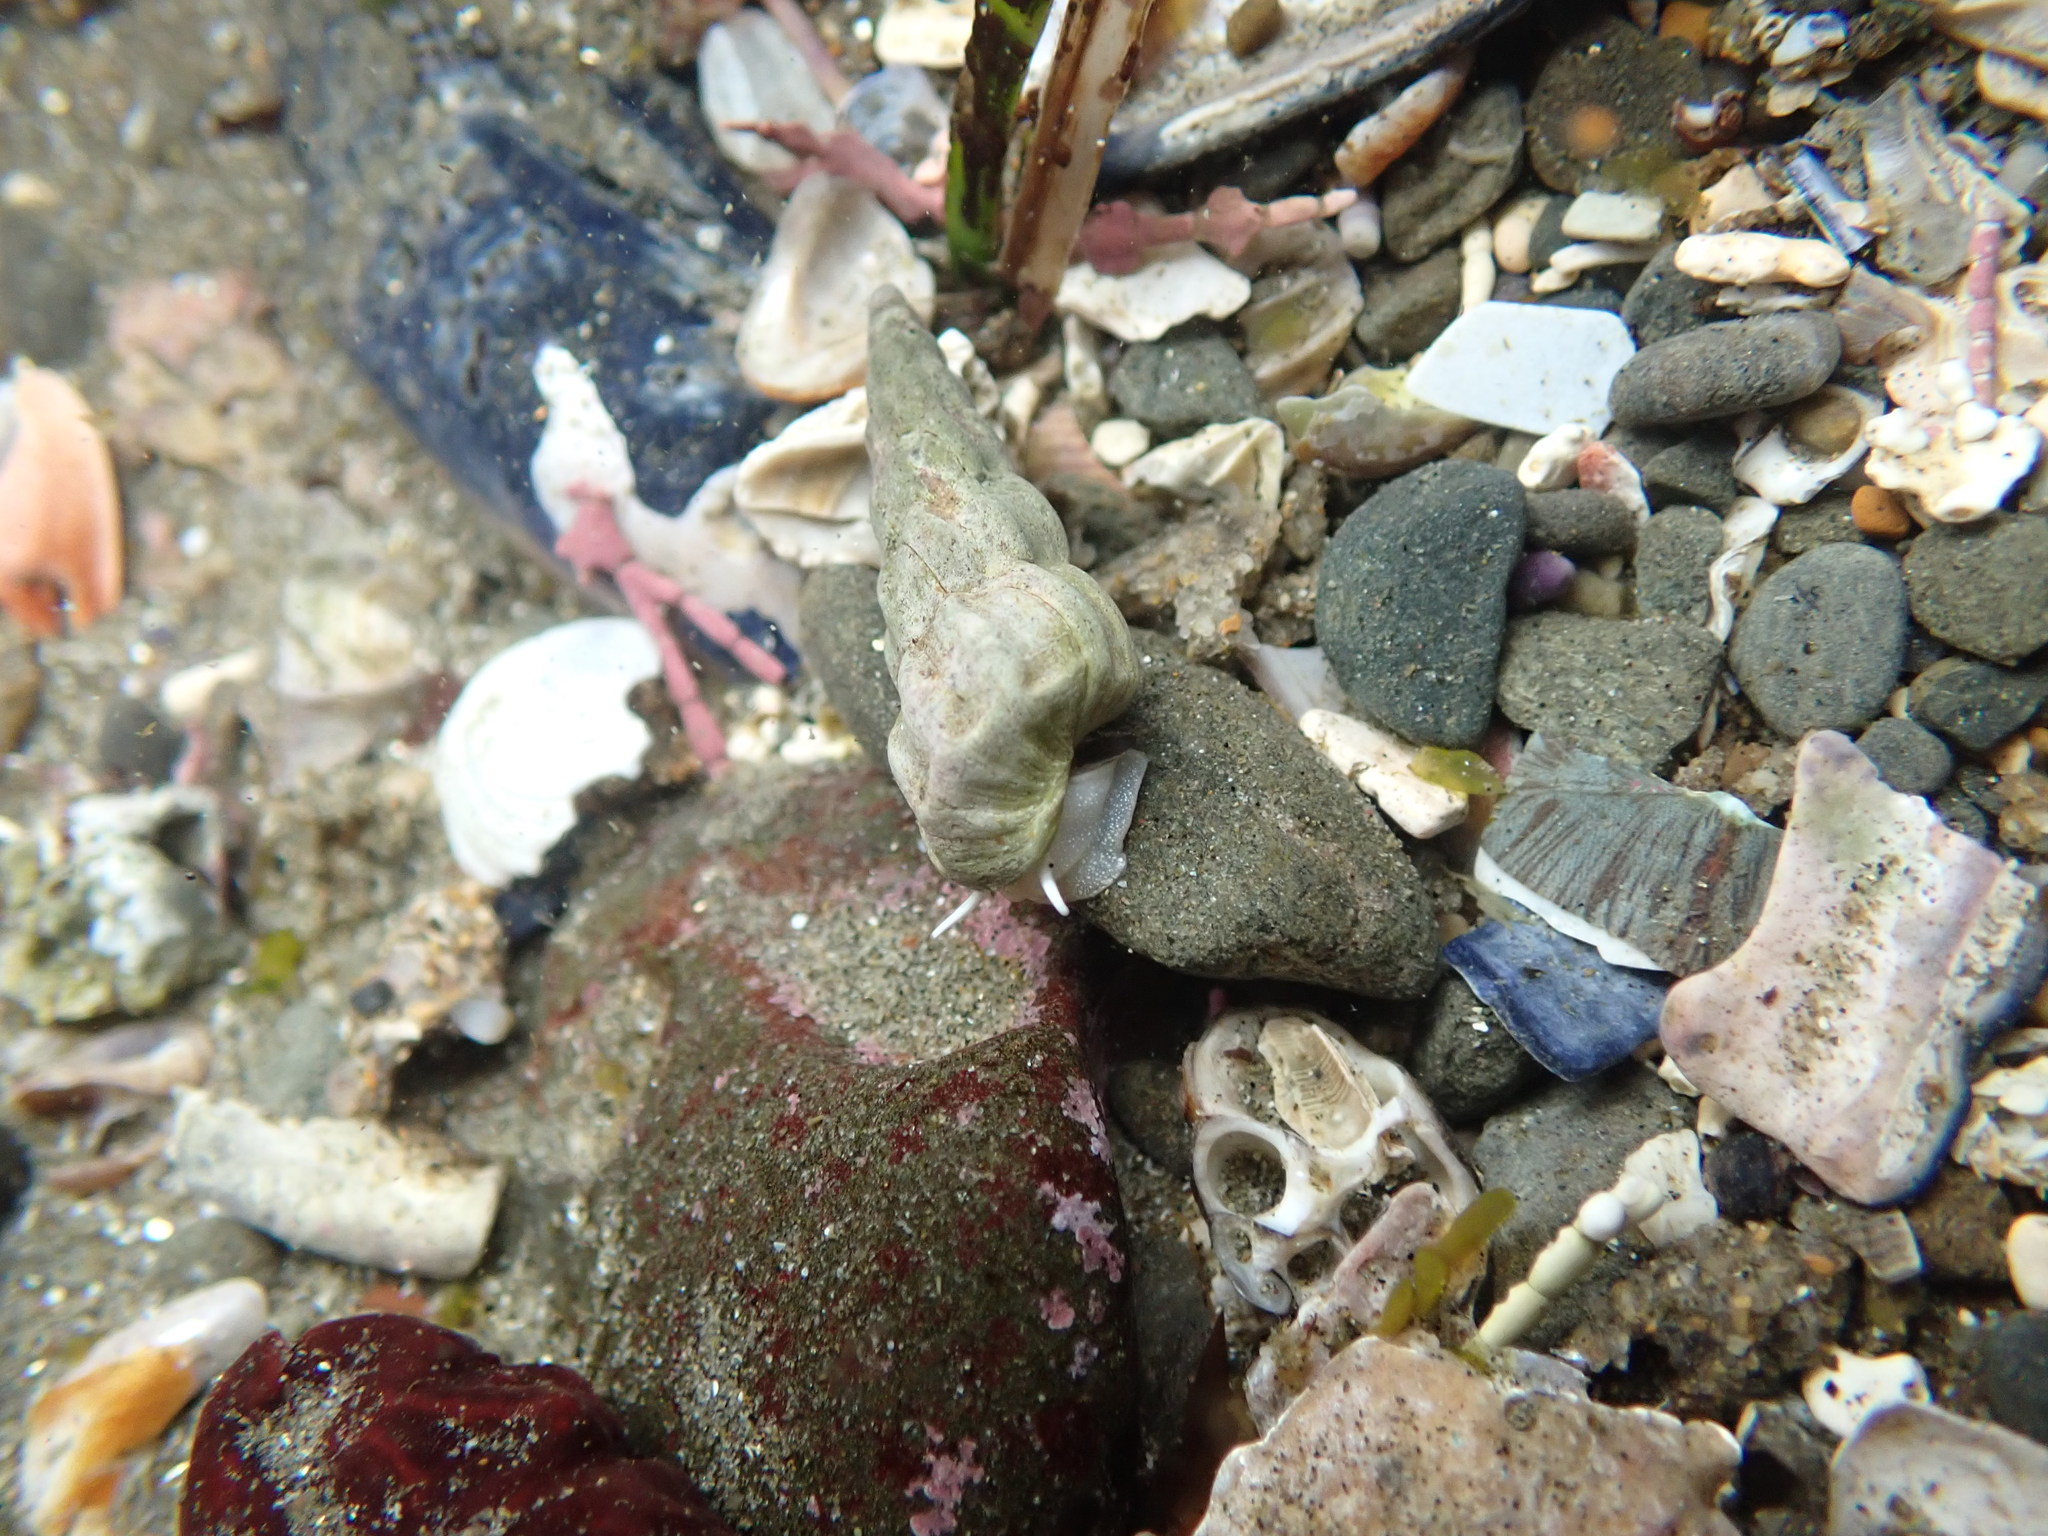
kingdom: Animalia
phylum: Mollusca
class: Gastropoda
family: Epitoniidae
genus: Opalia
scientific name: Opalia wroblewskyi
